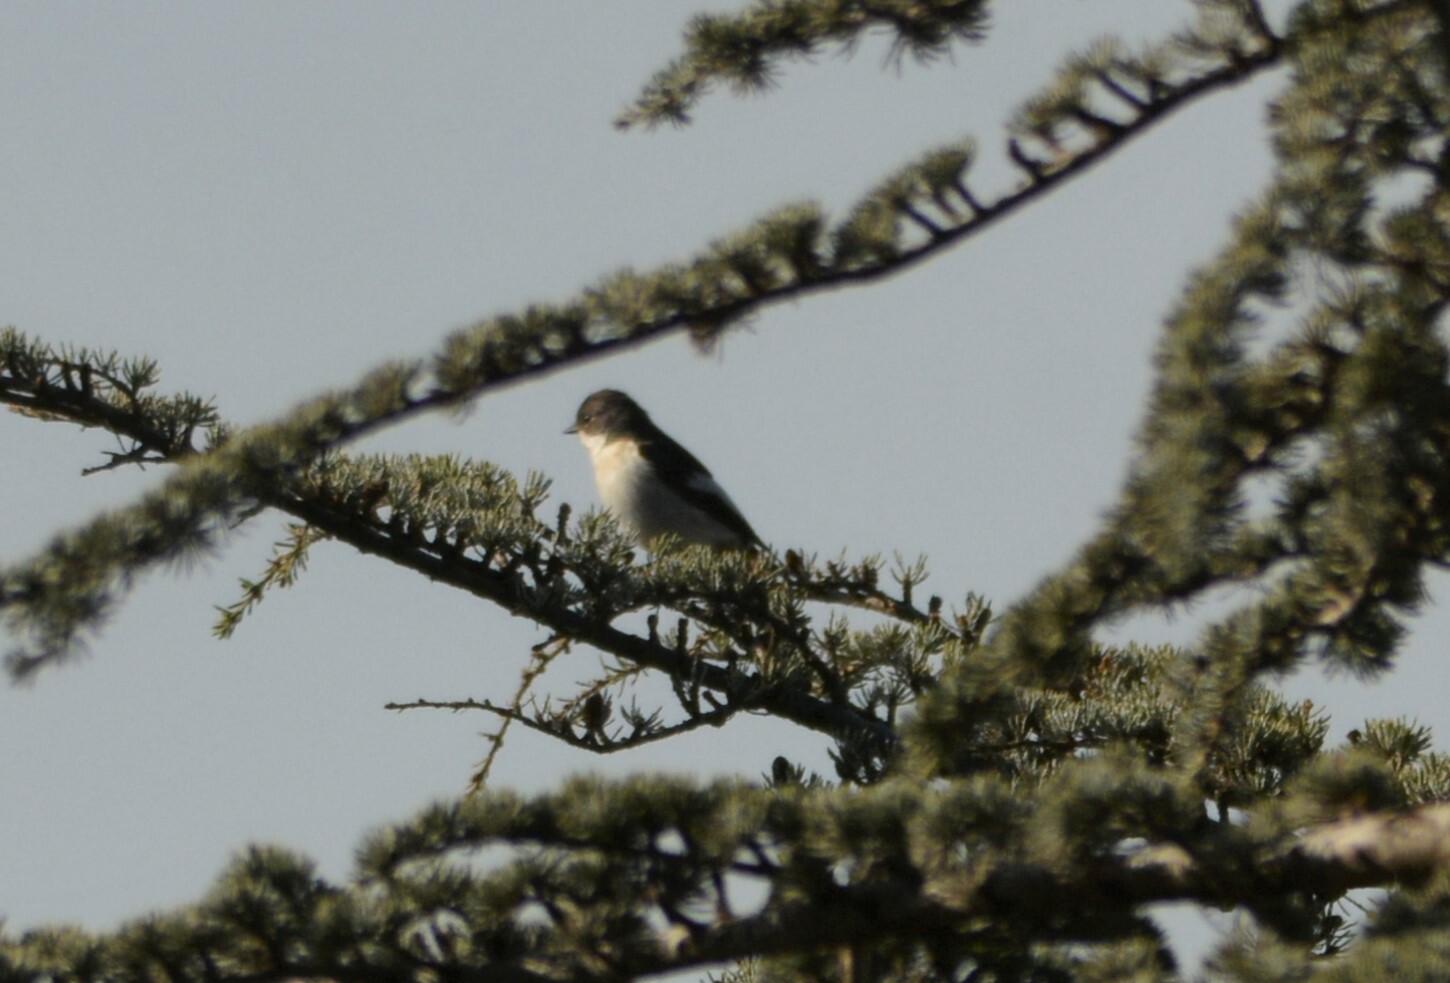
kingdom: Animalia
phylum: Chordata
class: Aves
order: Passeriformes
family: Muscicapidae
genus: Ficedula
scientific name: Ficedula hypoleuca
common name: European pied flycatcher
